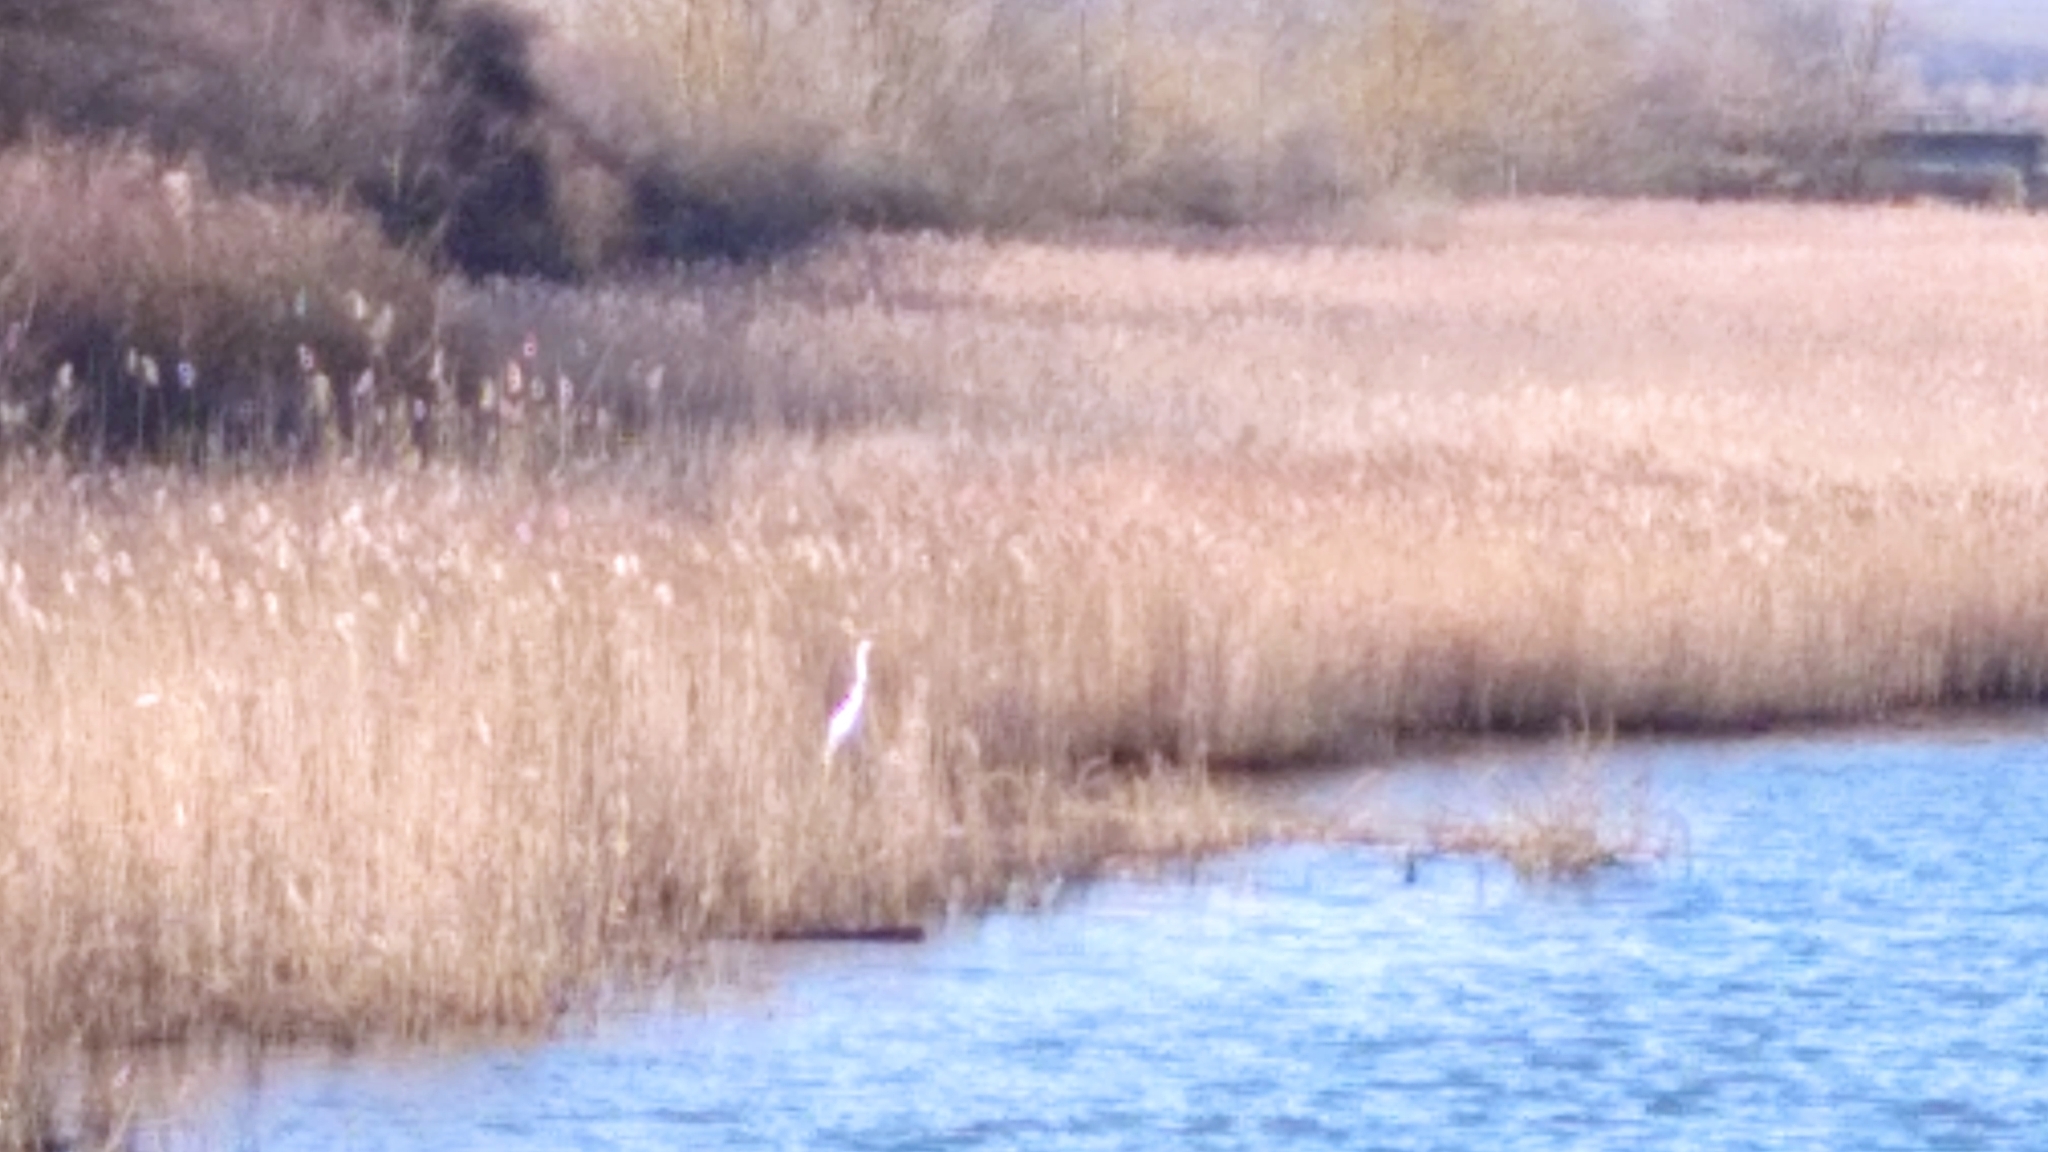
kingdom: Animalia
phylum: Chordata
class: Aves
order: Pelecaniformes
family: Ardeidae
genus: Ardea
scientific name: Ardea alba
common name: Great egret
